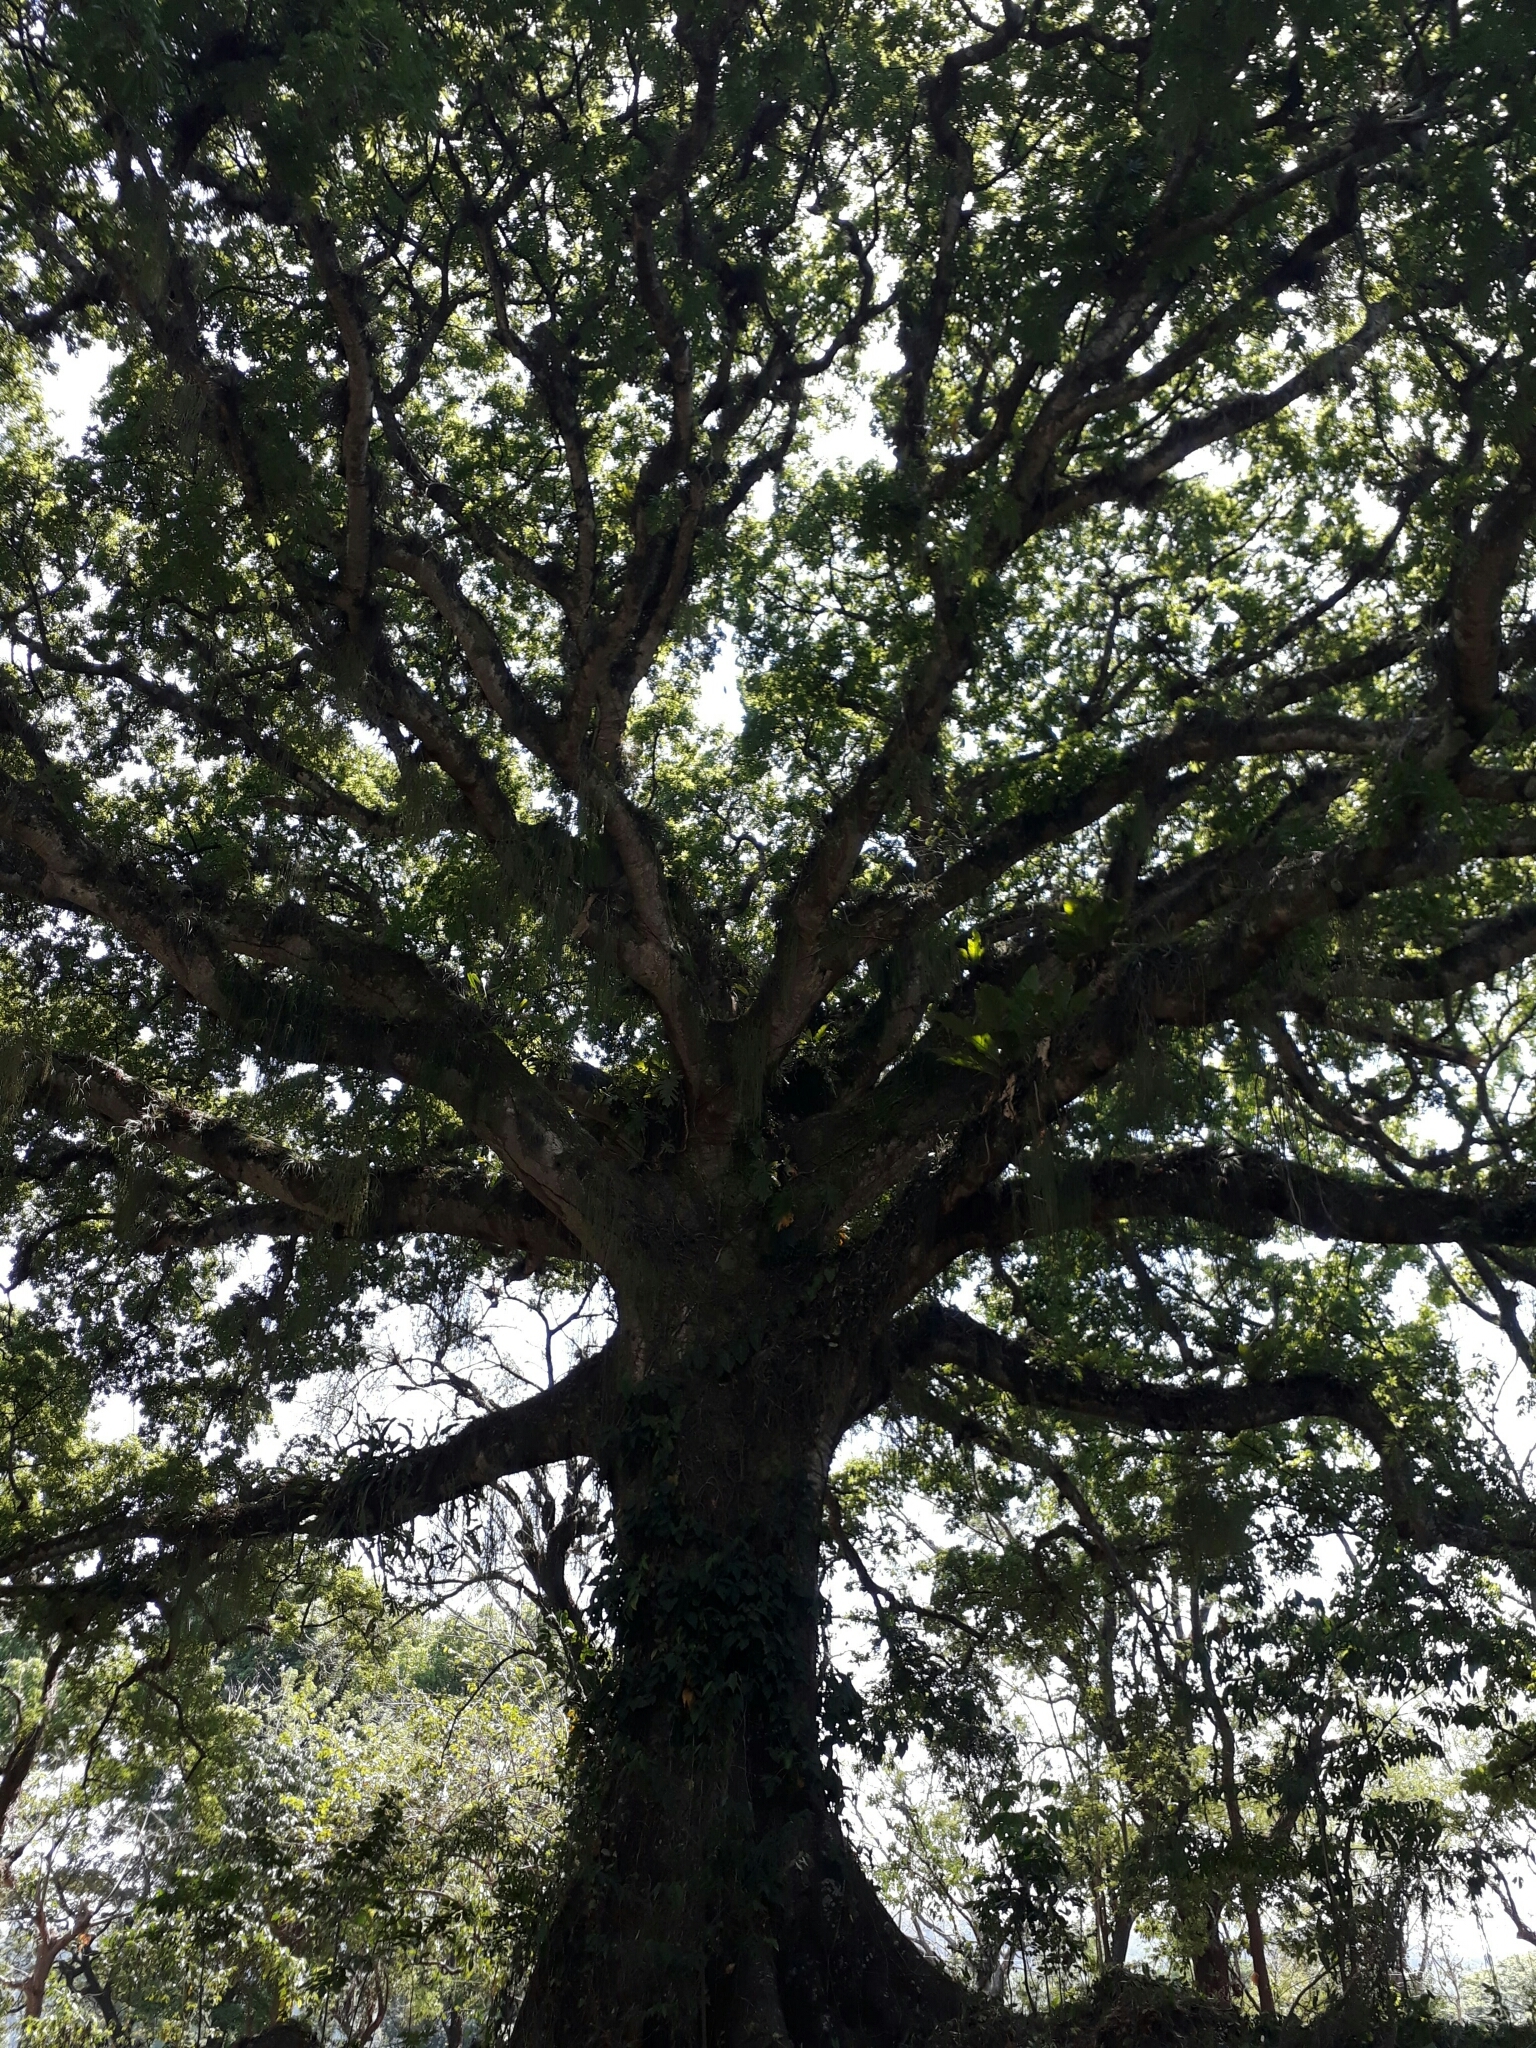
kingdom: Plantae
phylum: Tracheophyta
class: Magnoliopsida
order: Malvales
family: Malvaceae
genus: Ceiba
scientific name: Ceiba pentandra
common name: Kapok
